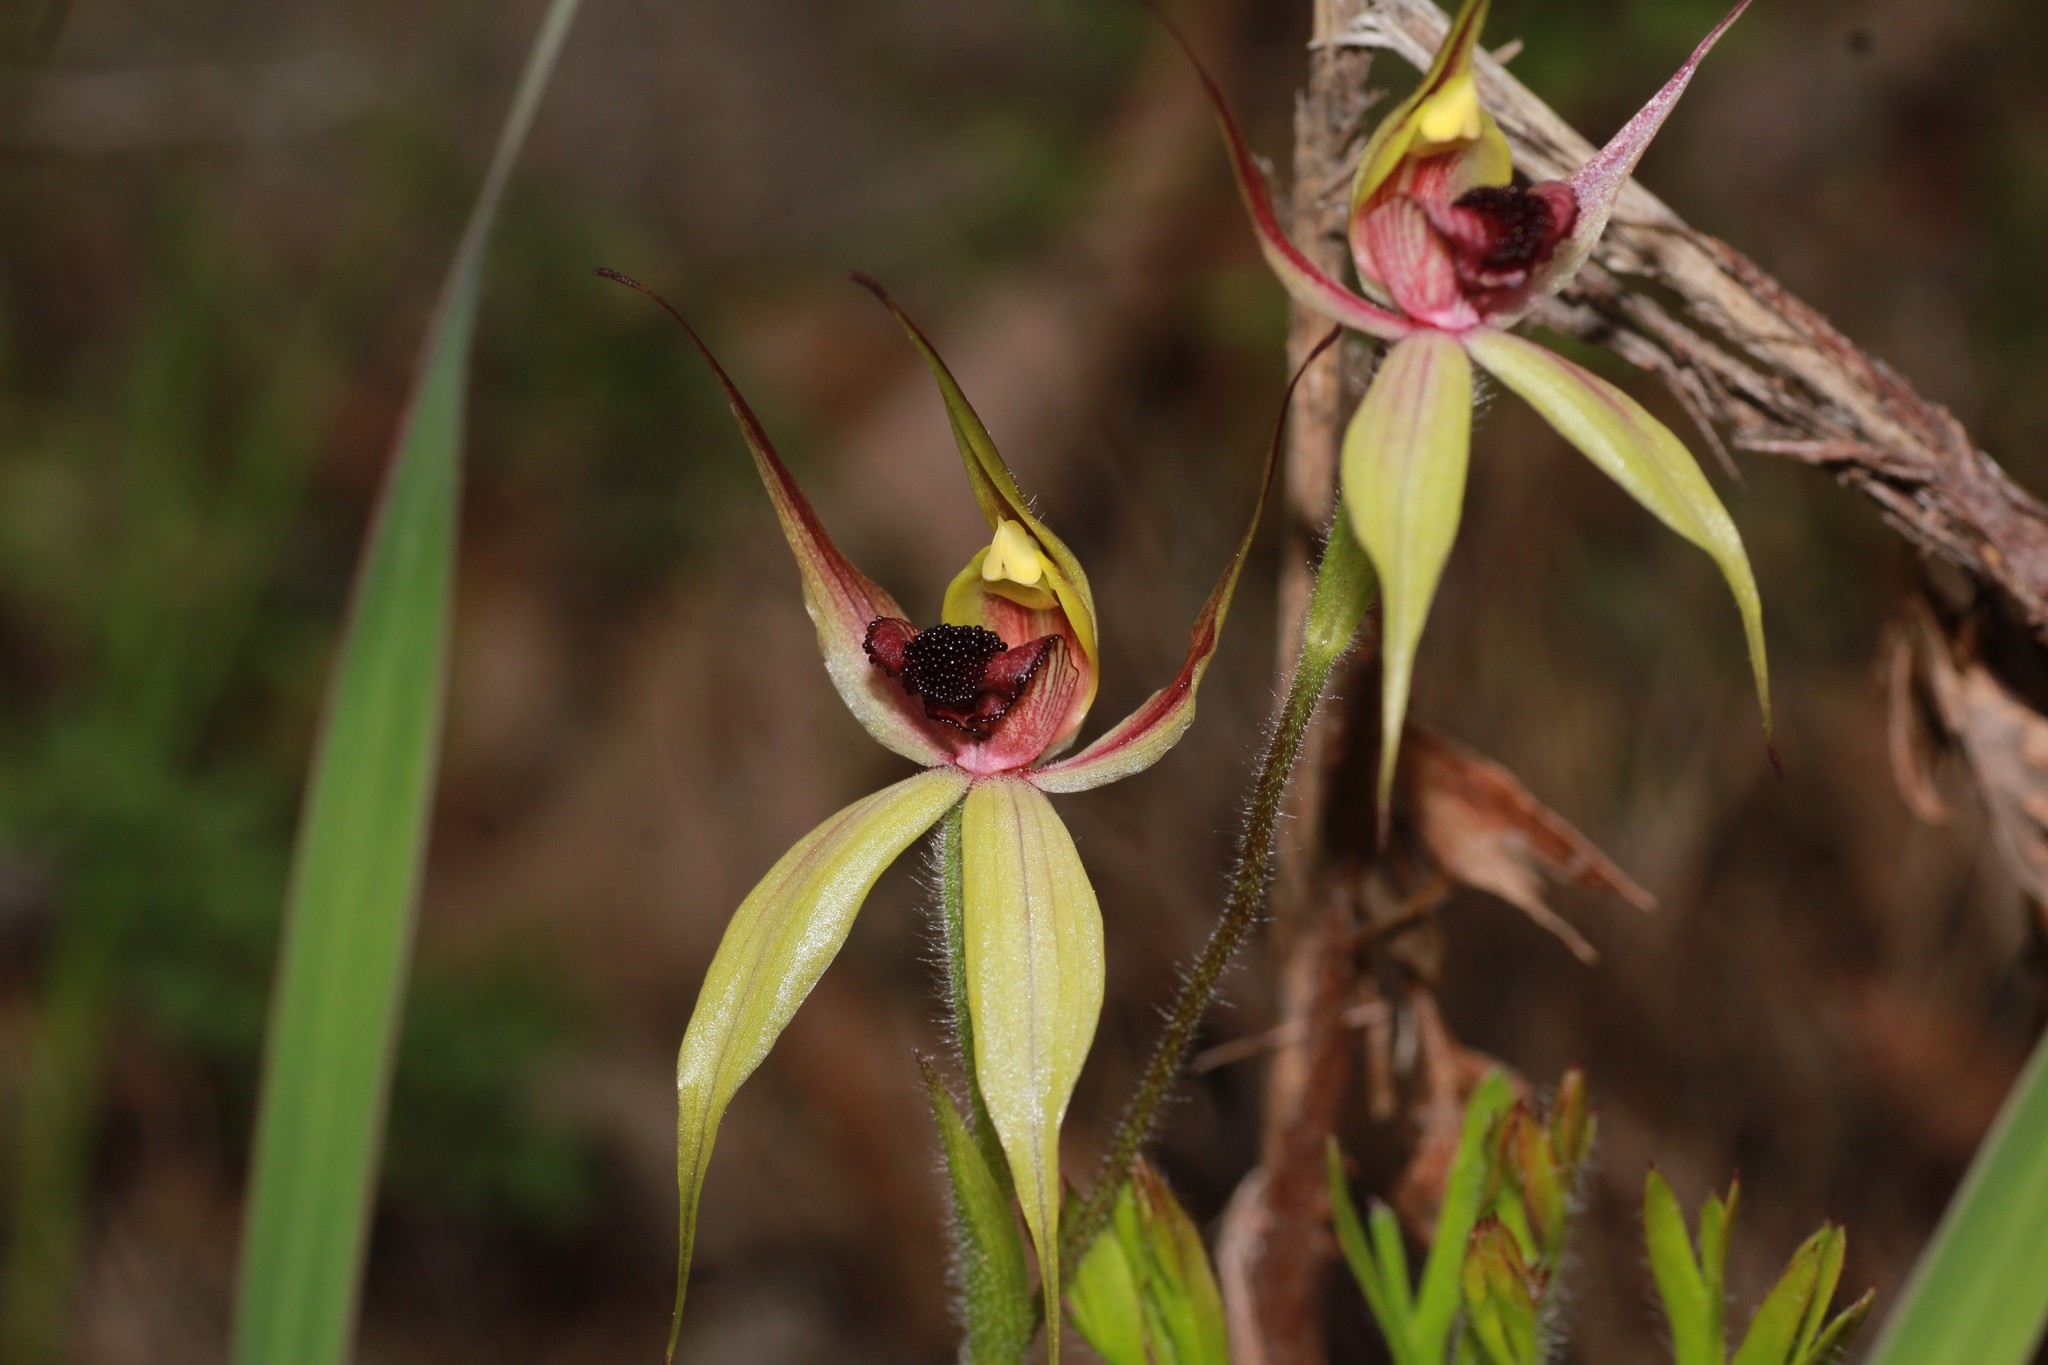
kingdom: Plantae
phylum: Tracheophyta
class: Liliopsida
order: Asparagales
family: Orchidaceae
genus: Caladenia
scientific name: Caladenia macrostylis
